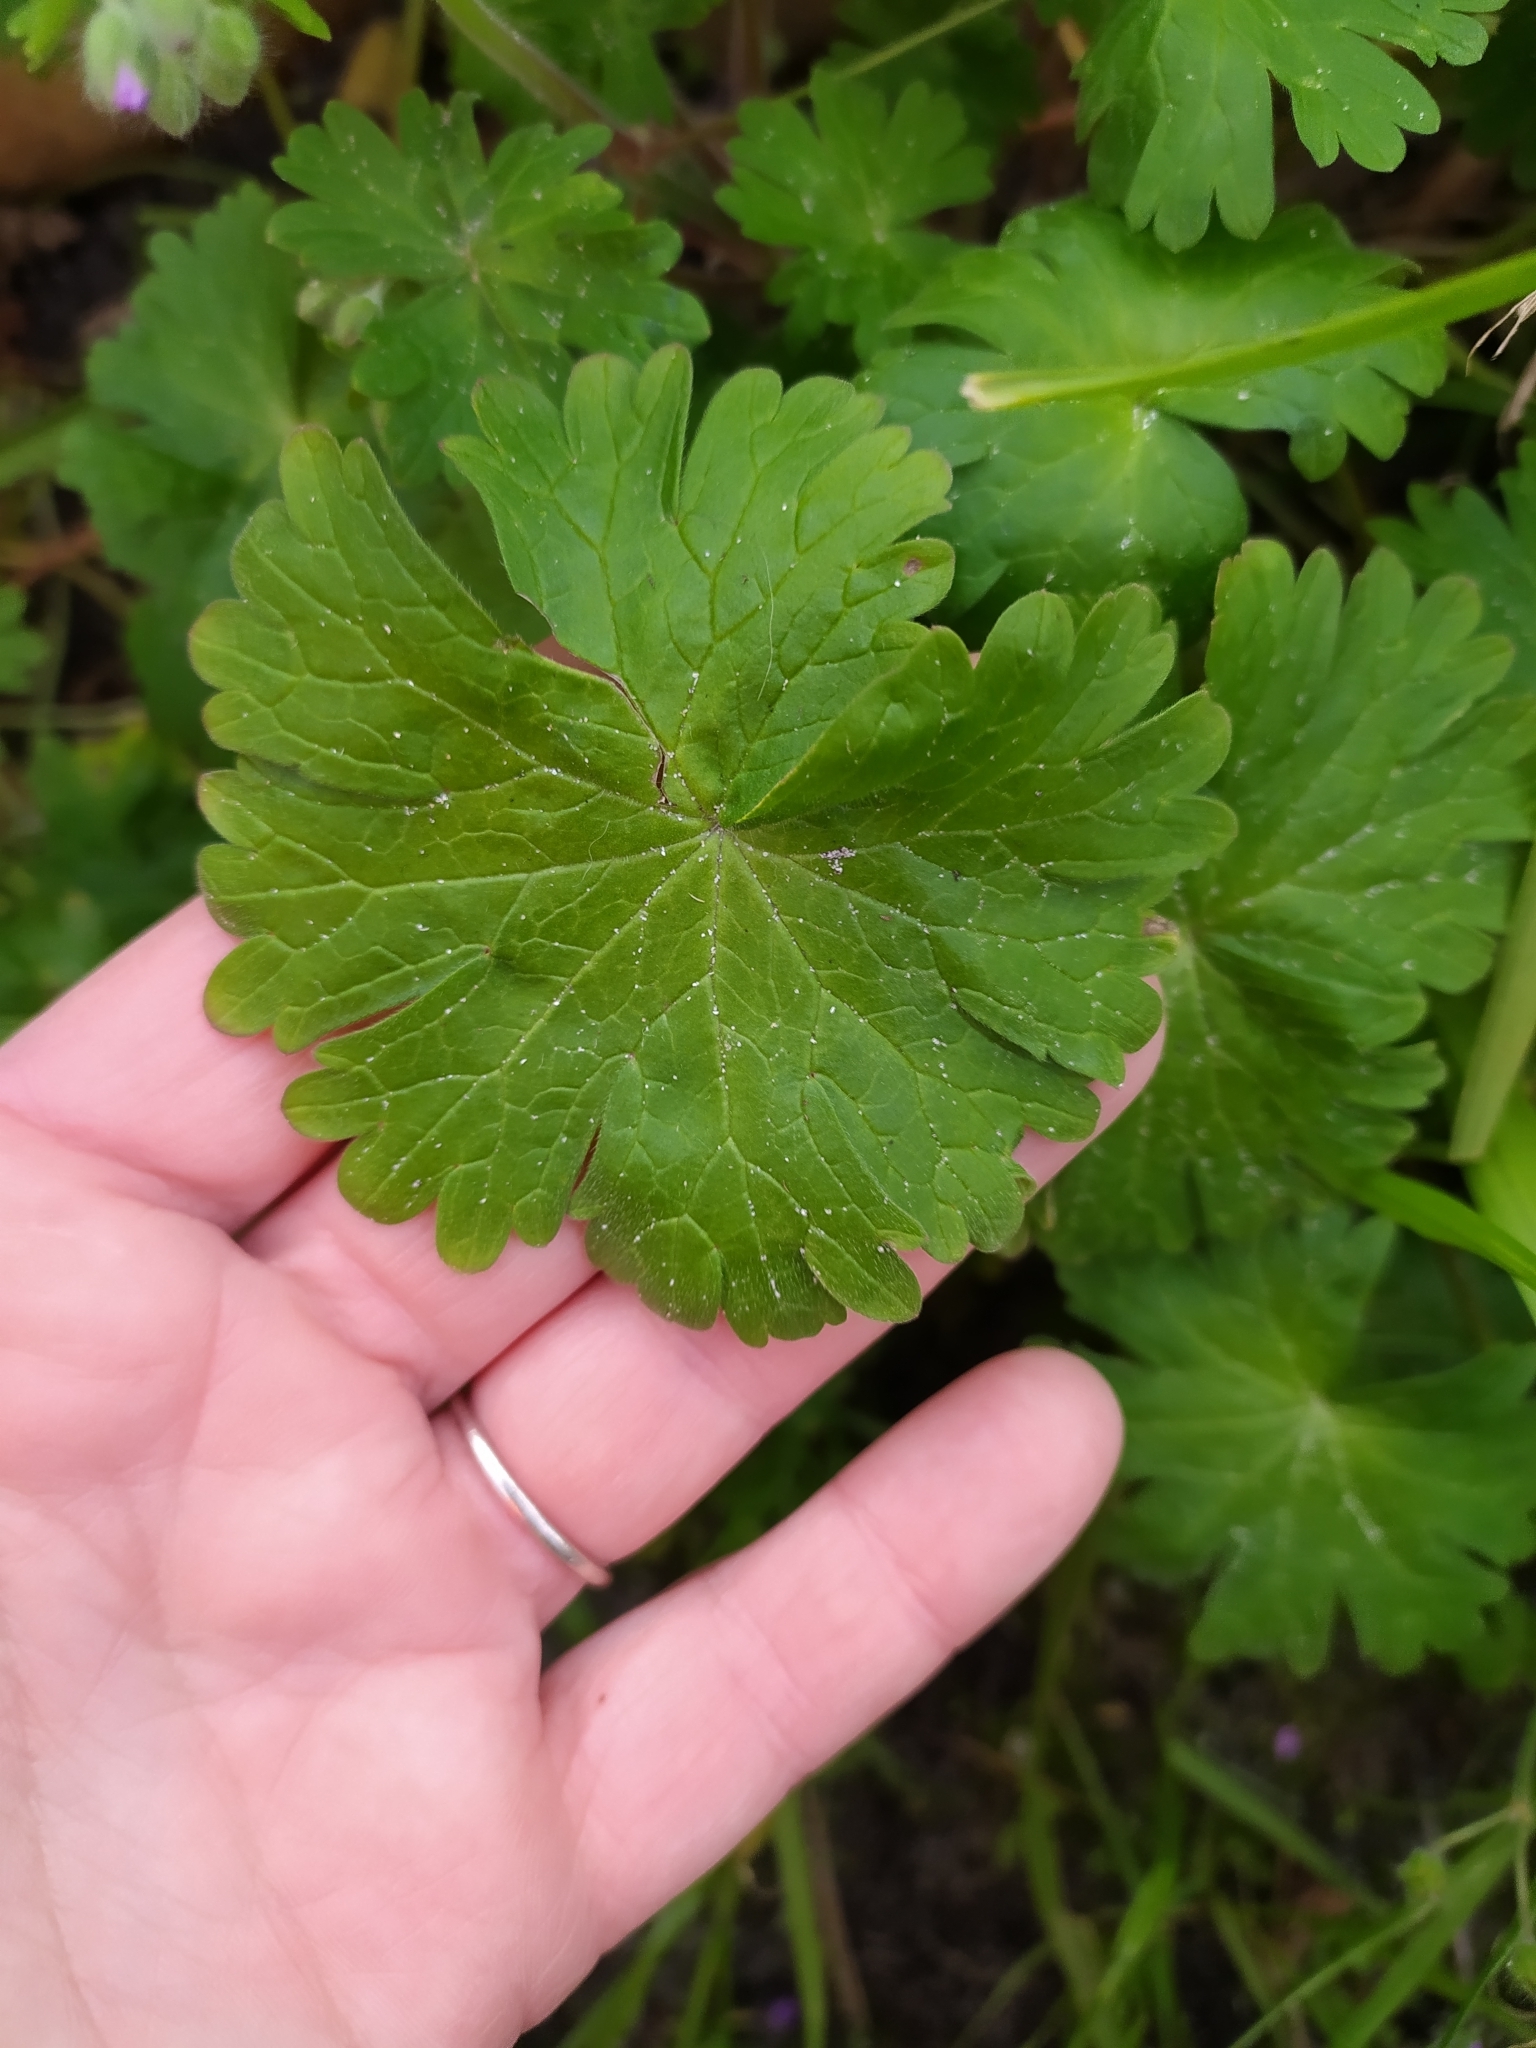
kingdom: Plantae
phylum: Tracheophyta
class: Magnoliopsida
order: Geraniales
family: Geraniaceae
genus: Geranium
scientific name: Geranium molle
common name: Dove's-foot crane's-bill
